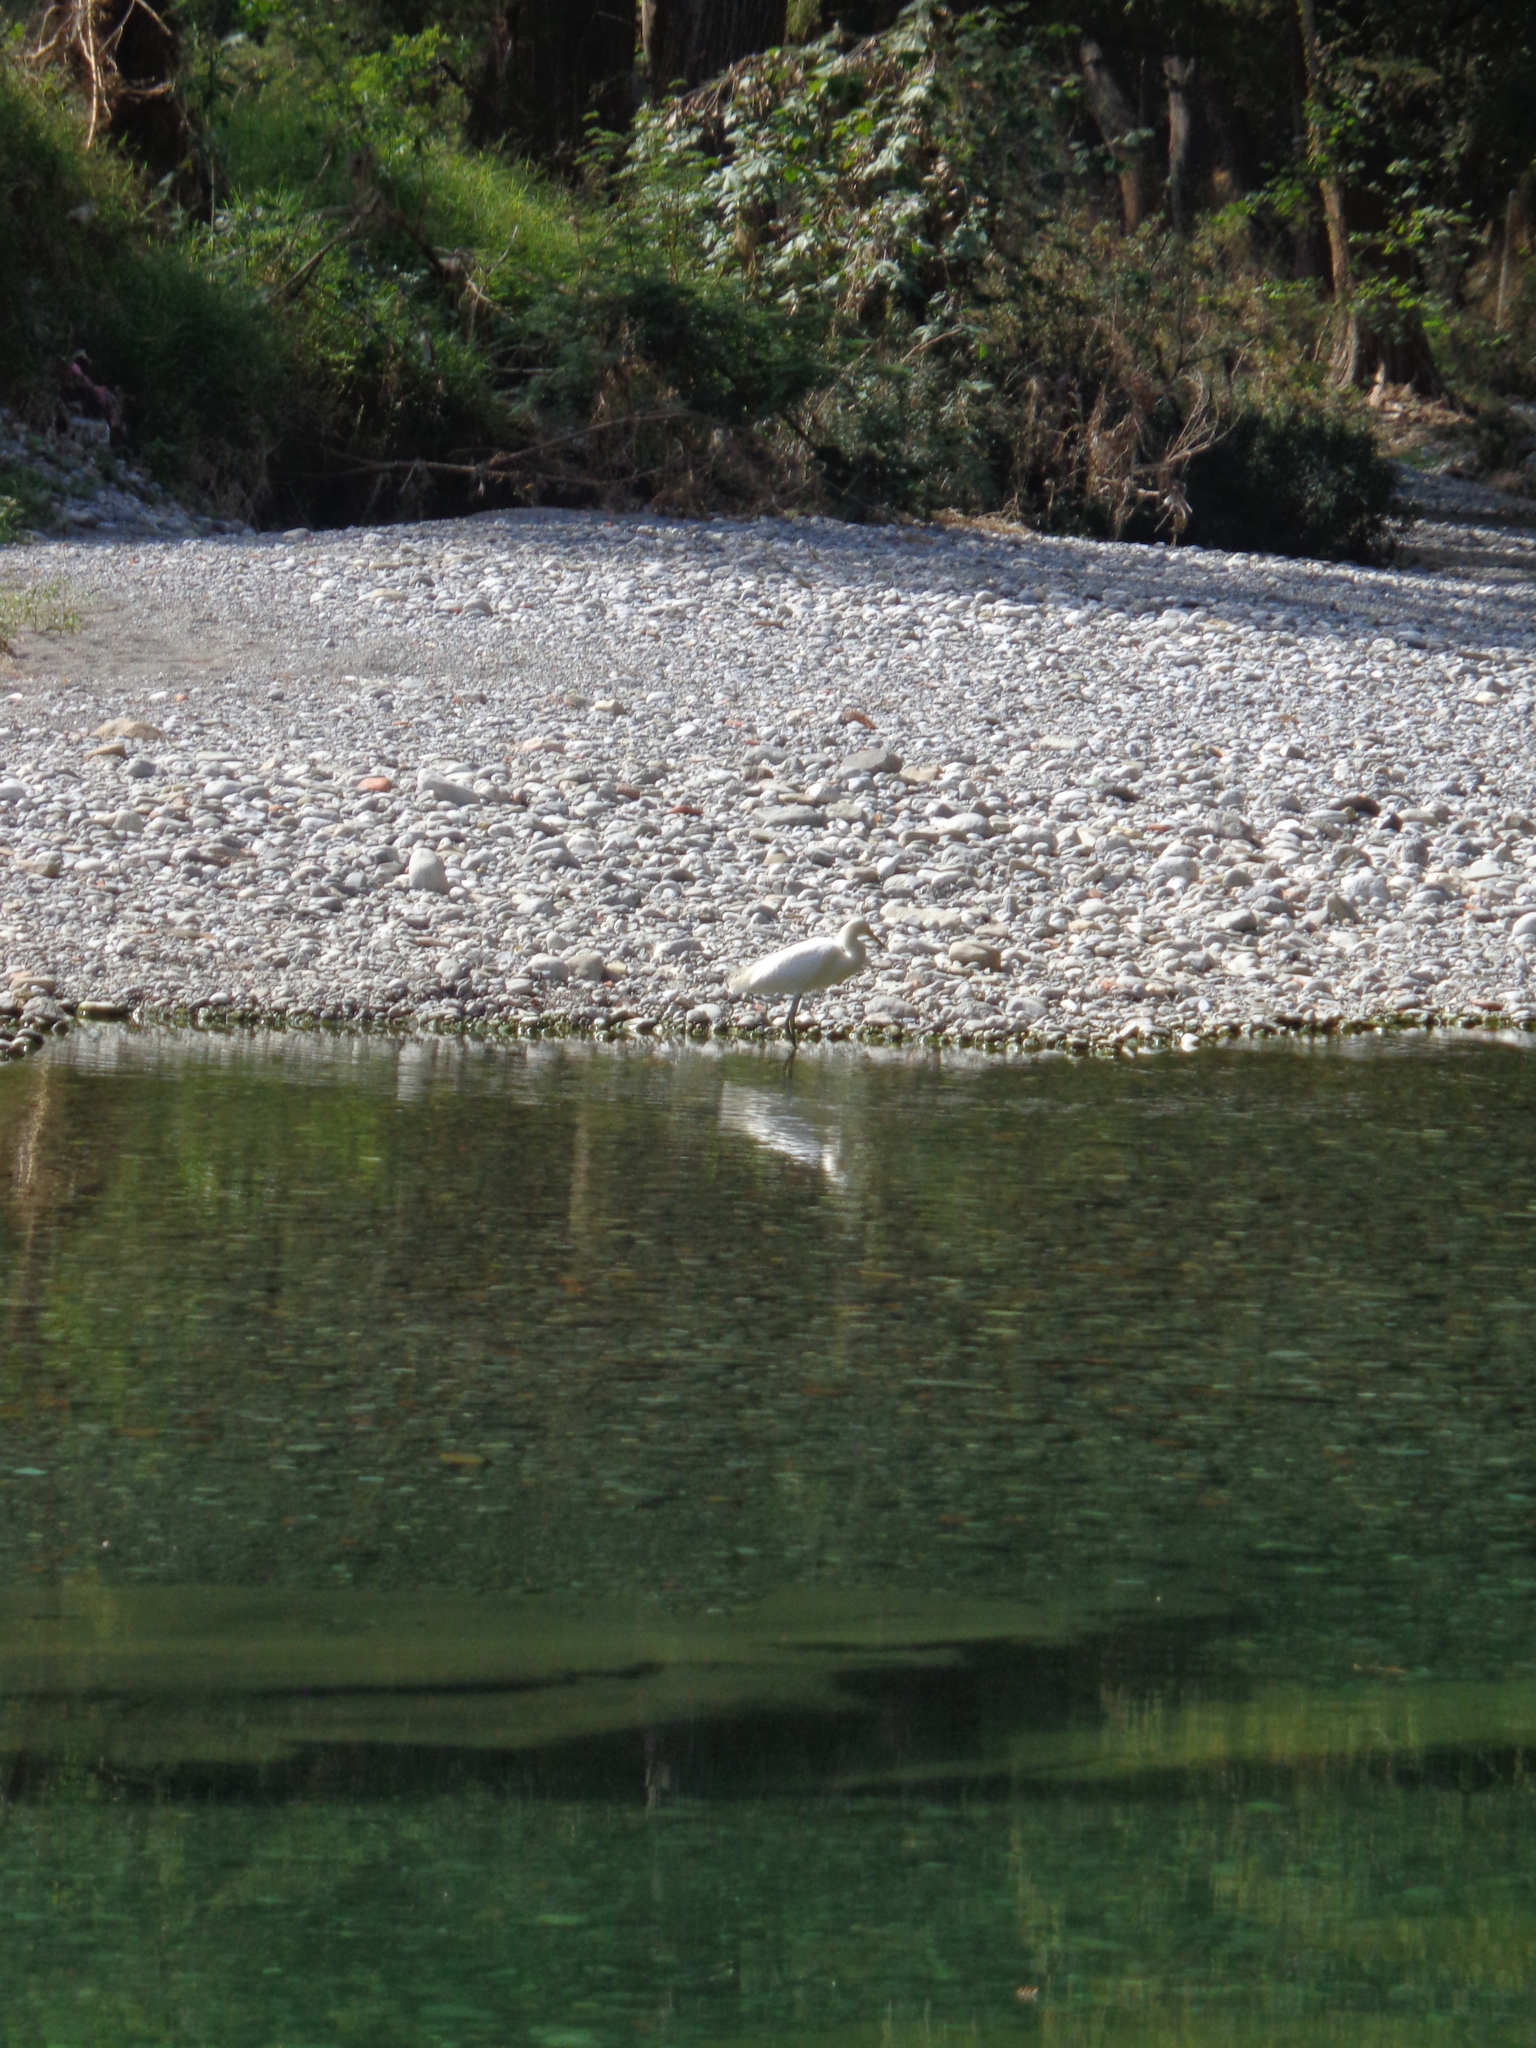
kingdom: Animalia
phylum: Chordata
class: Aves
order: Pelecaniformes
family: Ardeidae
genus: Egretta
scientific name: Egretta thula
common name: Snowy egret
